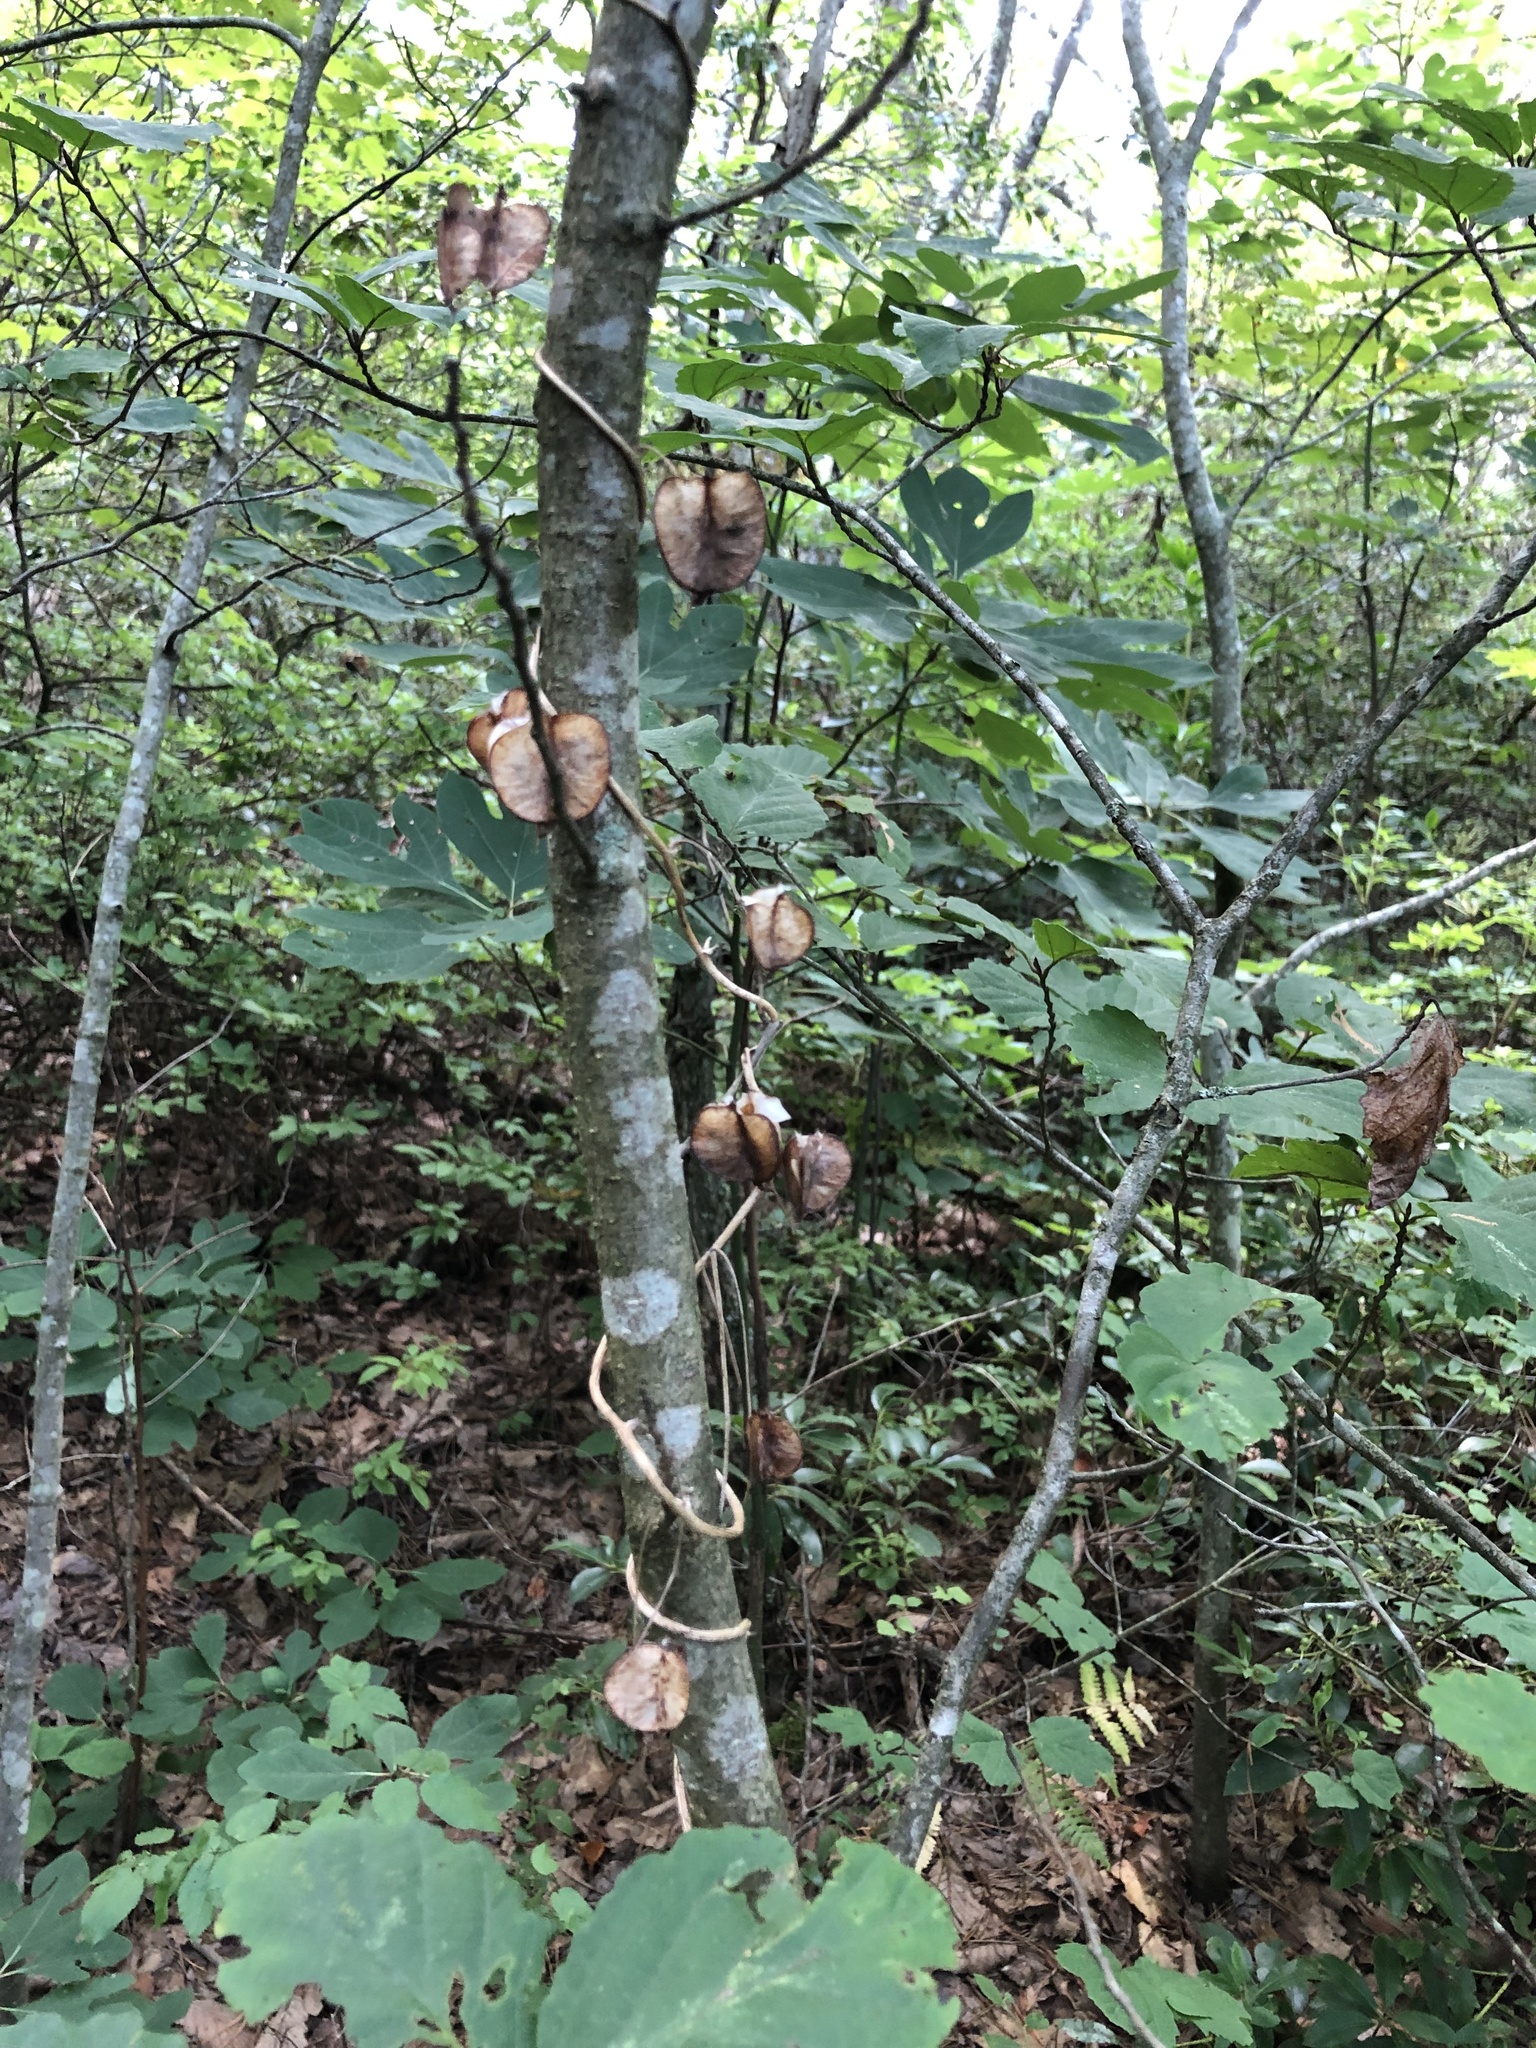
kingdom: Plantae
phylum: Tracheophyta
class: Liliopsida
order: Dioscoreales
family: Dioscoreaceae
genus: Dioscorea
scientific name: Dioscorea villosa
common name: Wild yam
